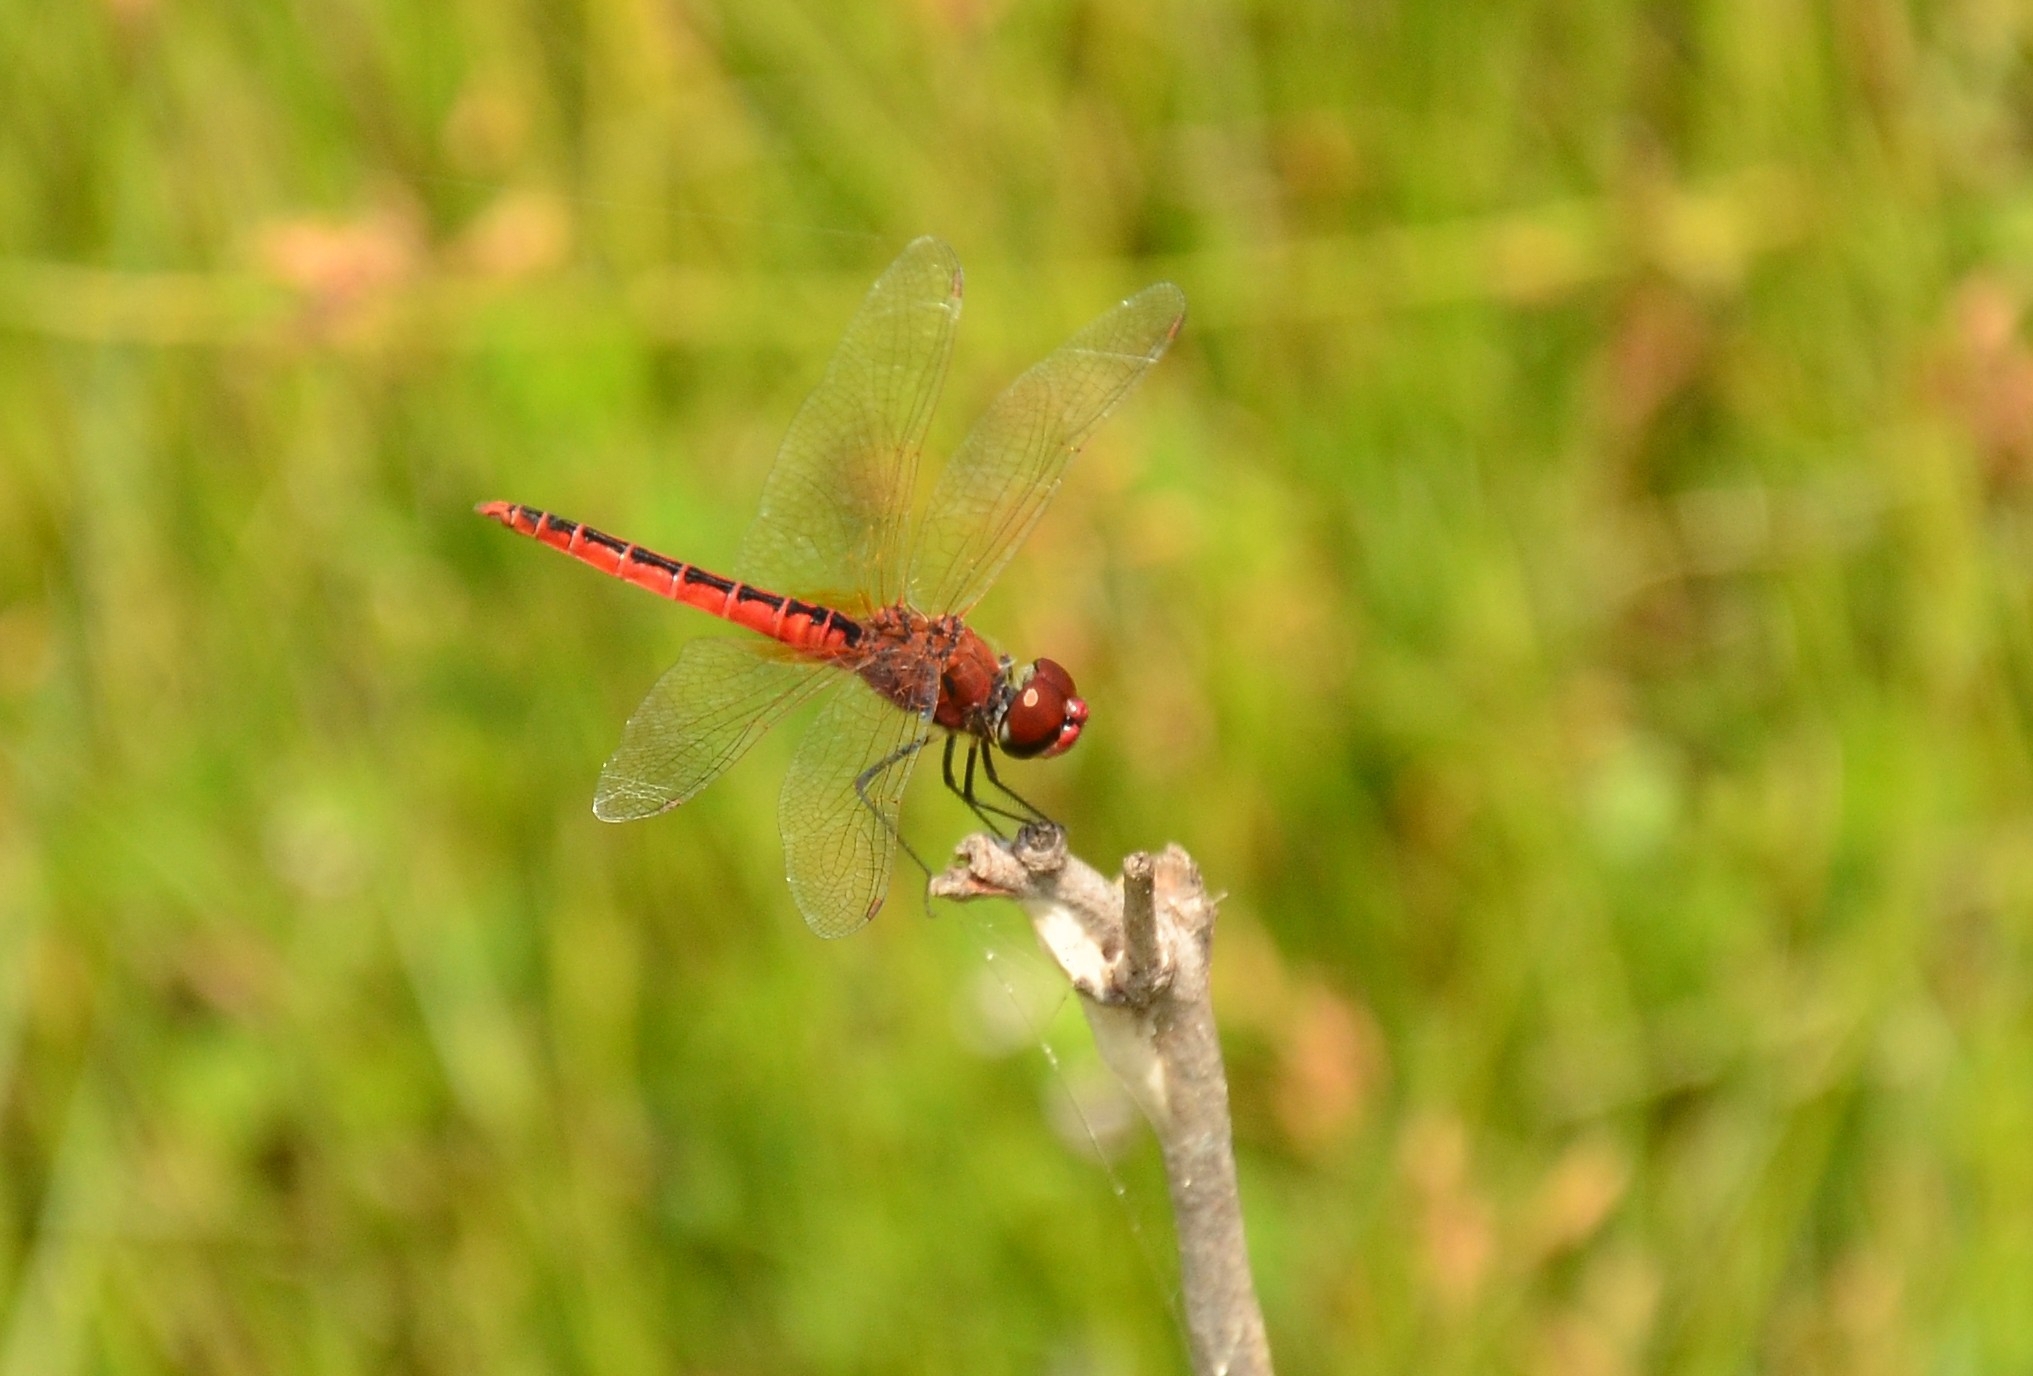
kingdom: Animalia
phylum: Arthropoda
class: Insecta
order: Odonata
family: Libellulidae
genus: Macrodiplax
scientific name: Macrodiplax cora
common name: Coastal glider
